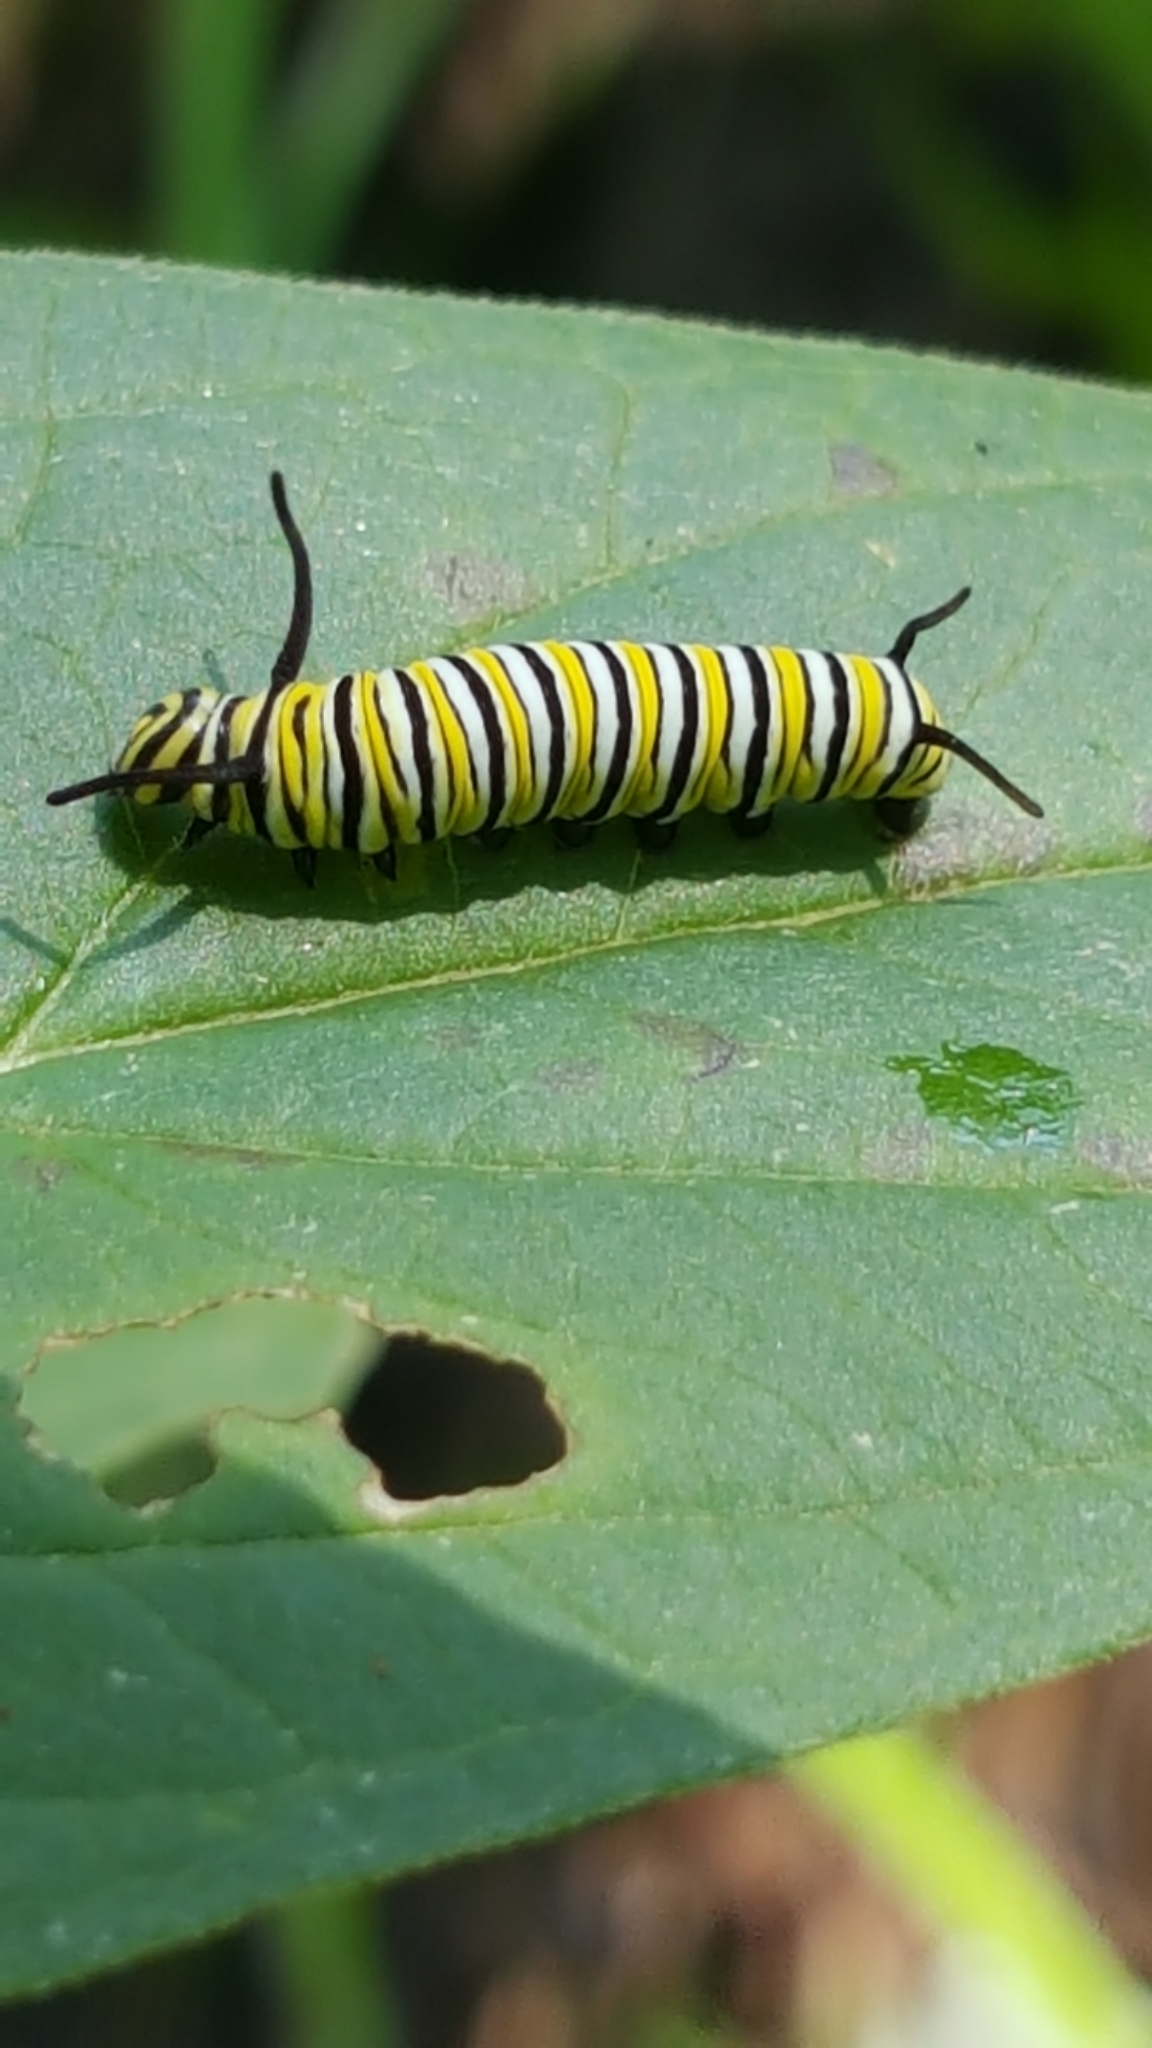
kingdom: Animalia
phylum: Arthropoda
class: Insecta
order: Lepidoptera
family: Nymphalidae
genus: Danaus
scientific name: Danaus plexippus
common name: Monarch
